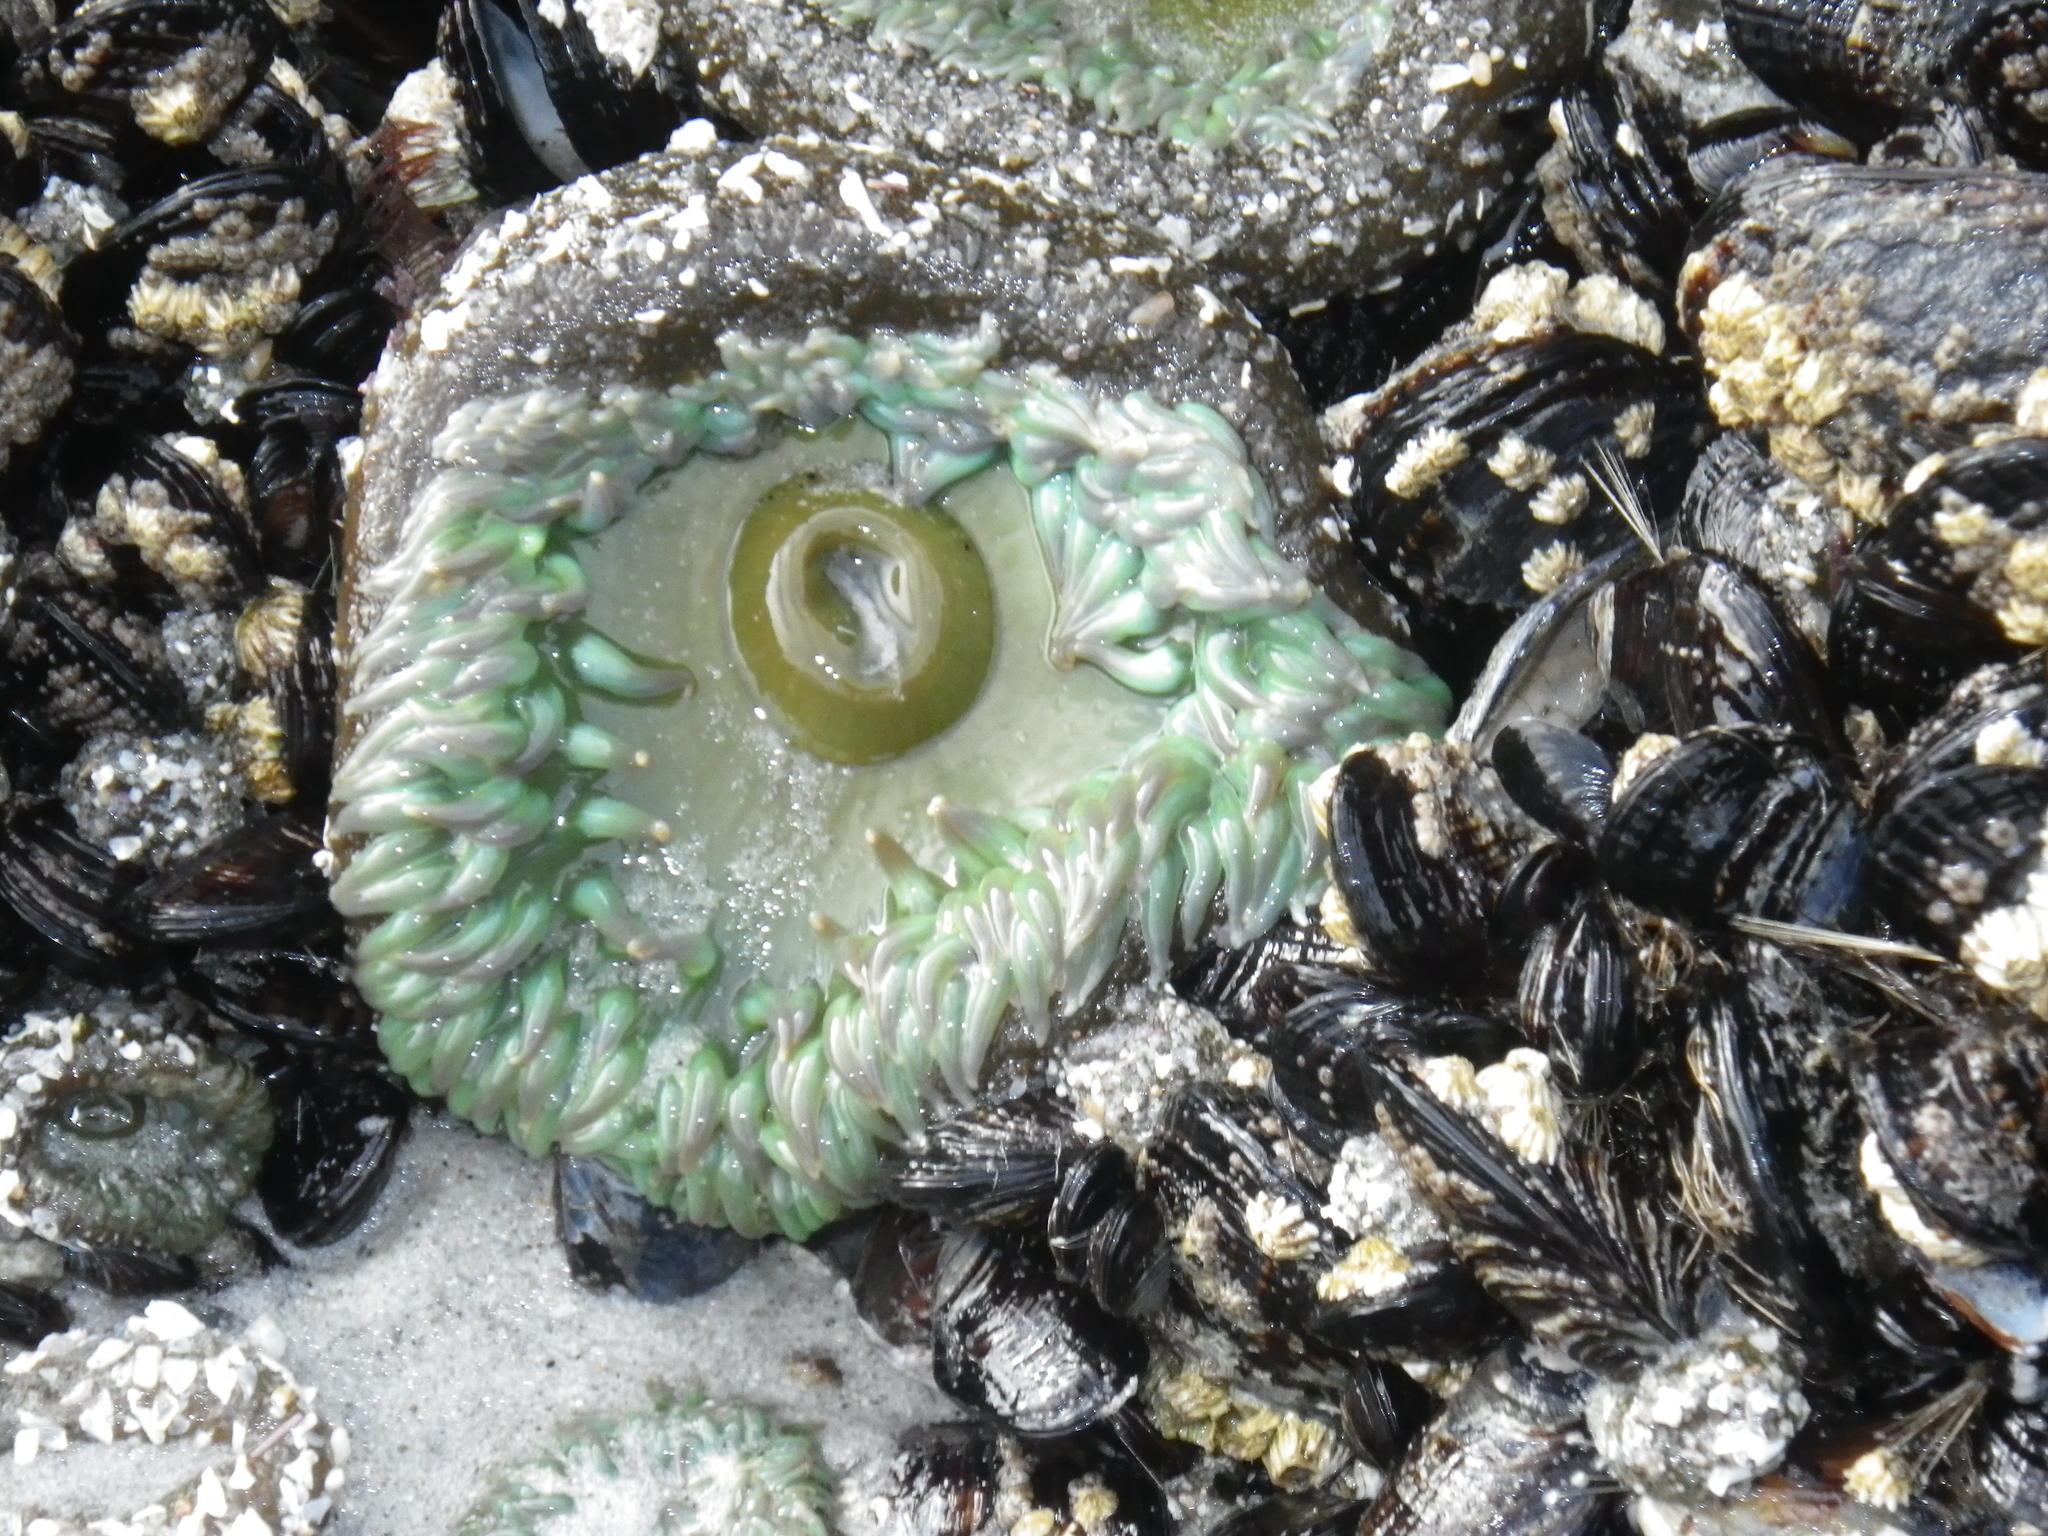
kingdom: Animalia
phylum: Cnidaria
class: Anthozoa
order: Actiniaria
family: Actiniidae
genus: Anthopleura
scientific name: Anthopleura xanthogrammica
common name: Giant green anemone
